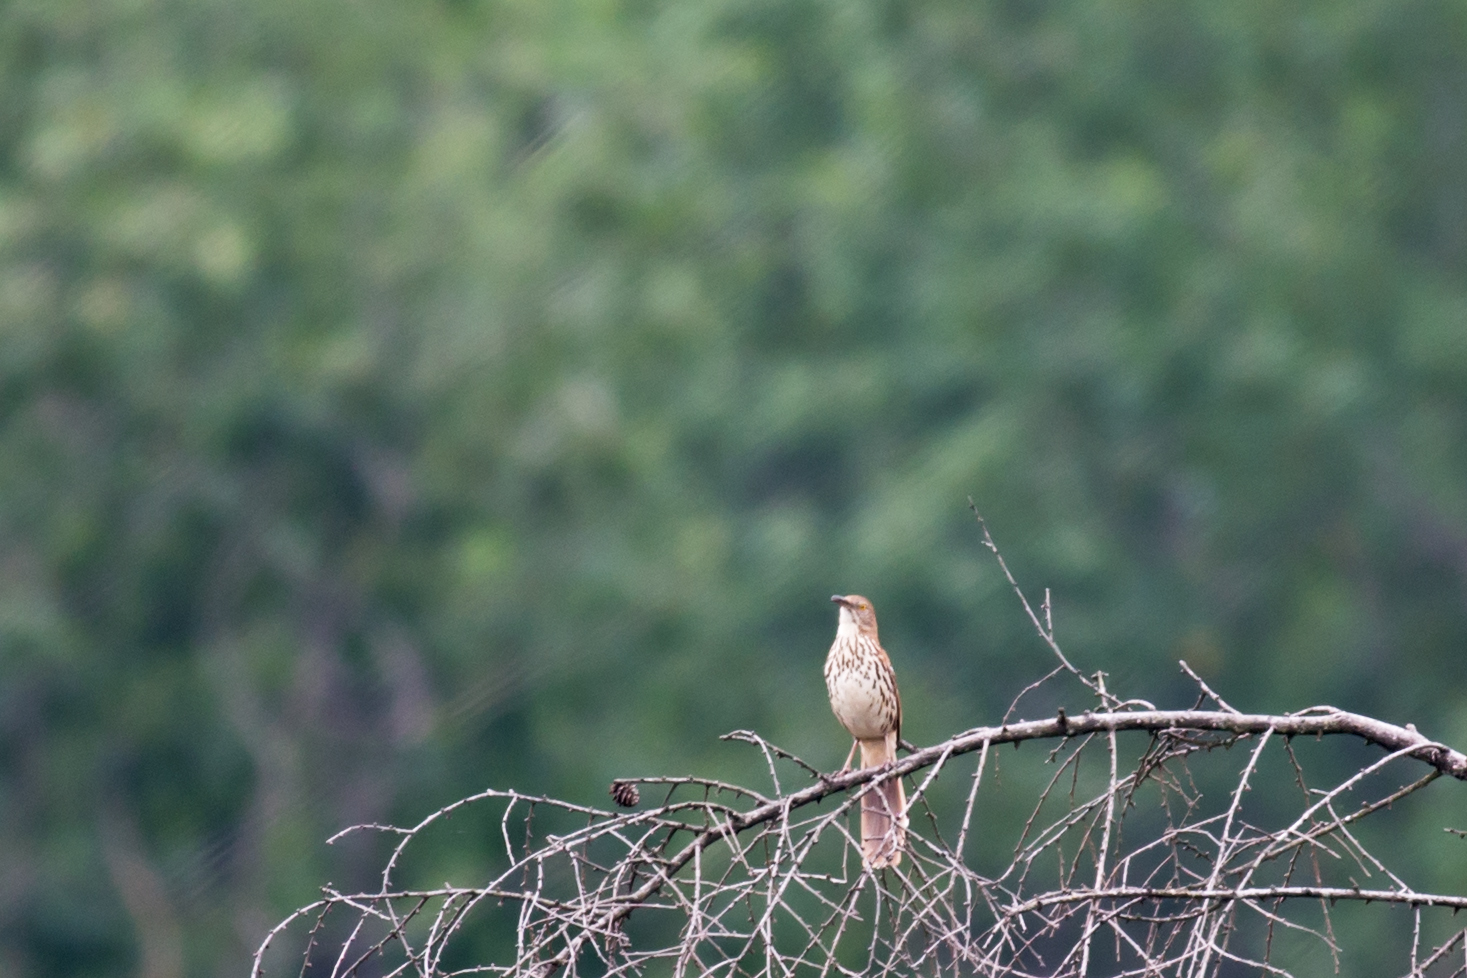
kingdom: Animalia
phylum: Chordata
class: Aves
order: Passeriformes
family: Mimidae
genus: Toxostoma
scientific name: Toxostoma rufum
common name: Brown thrasher
